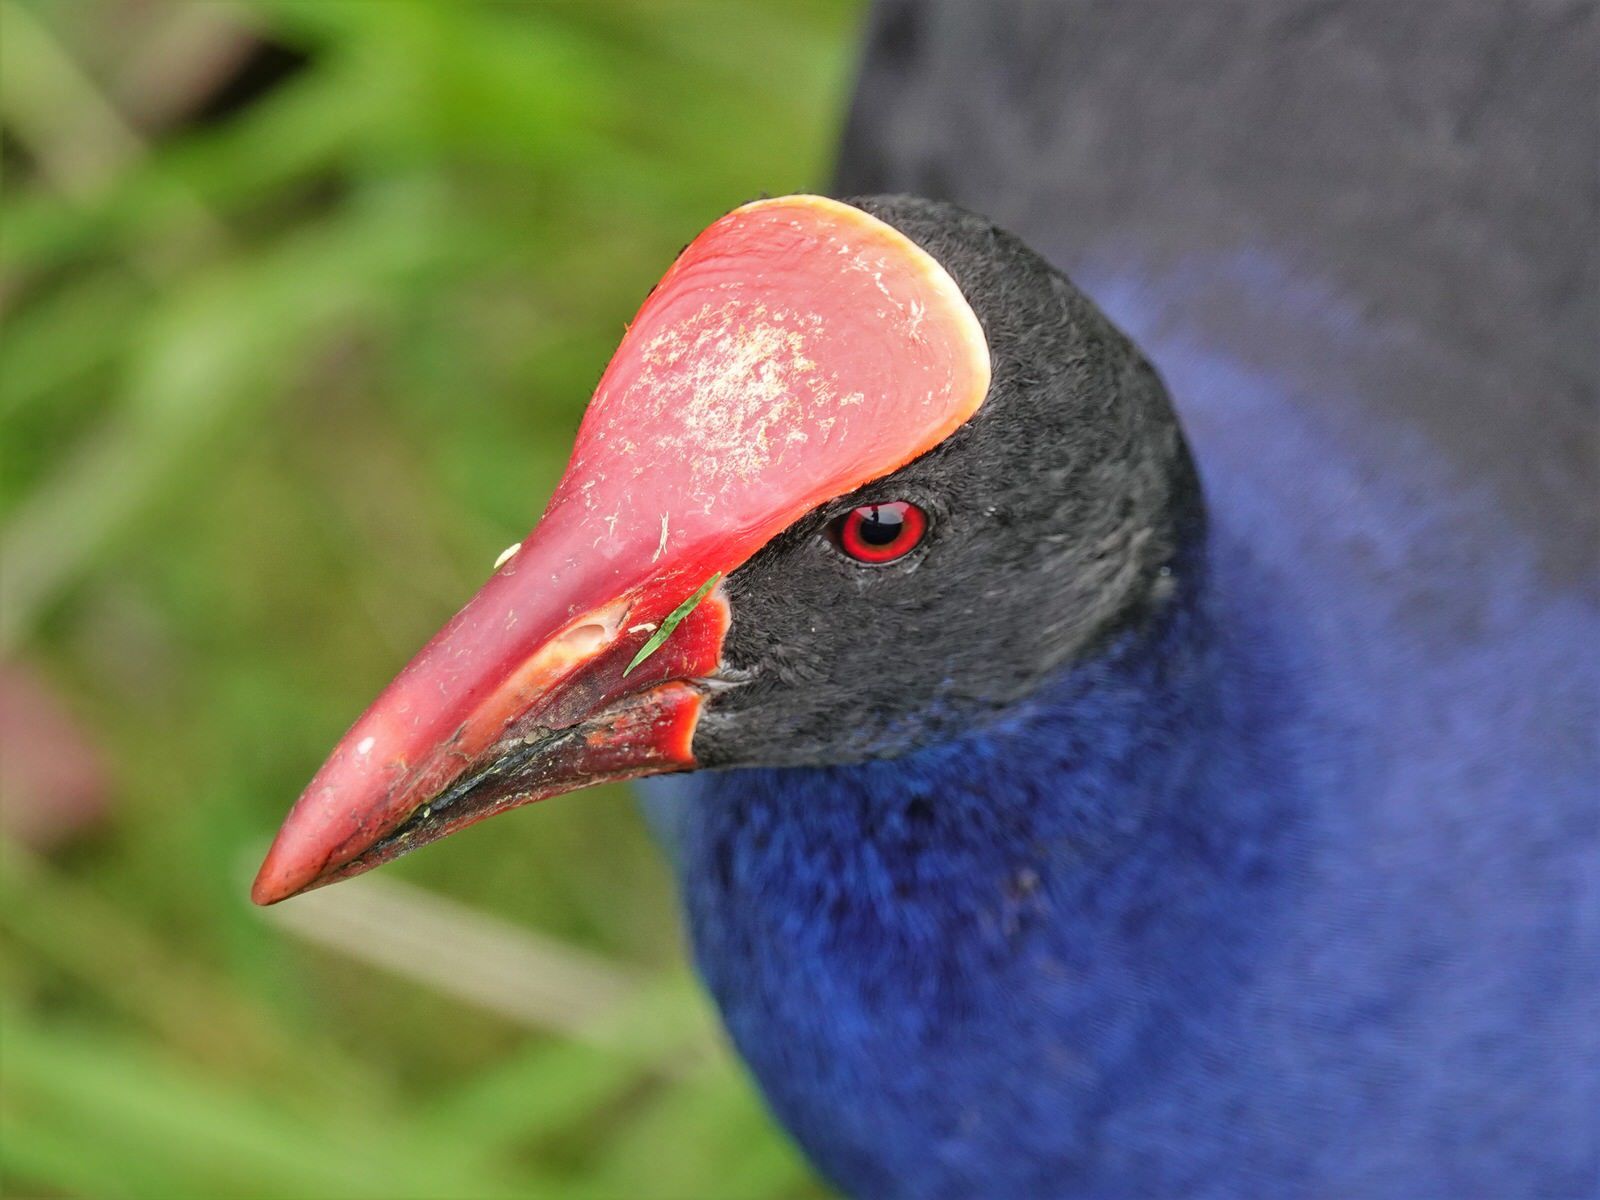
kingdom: Animalia
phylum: Chordata
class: Aves
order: Gruiformes
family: Rallidae
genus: Porphyrio
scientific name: Porphyrio melanotus
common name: Australasian swamphen
